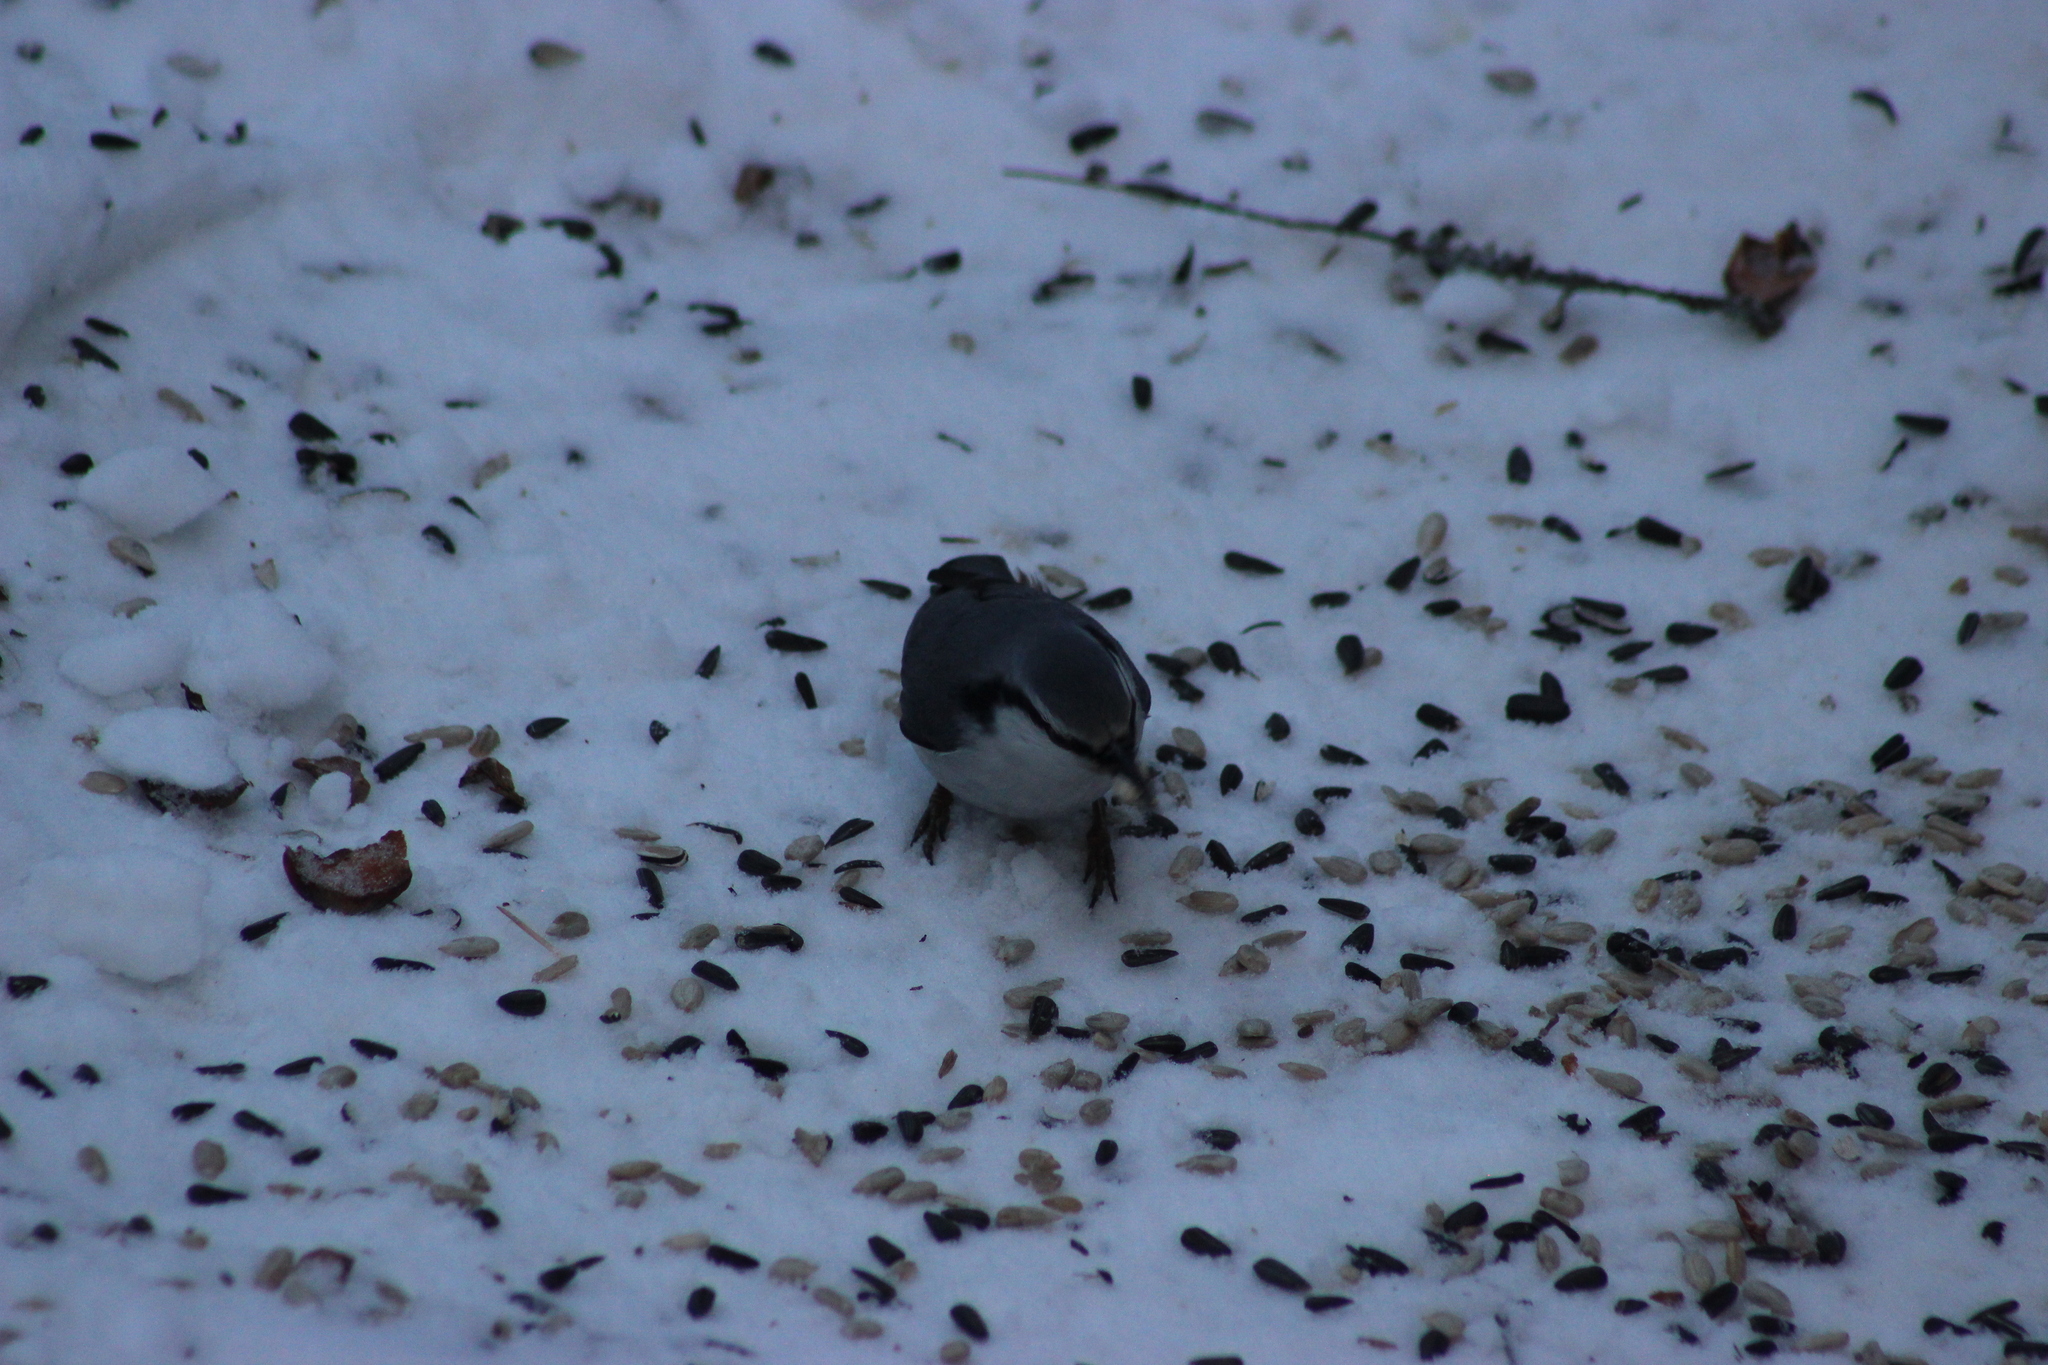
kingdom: Animalia
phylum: Chordata
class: Aves
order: Passeriformes
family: Sittidae
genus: Sitta
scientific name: Sitta europaea
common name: Eurasian nuthatch
